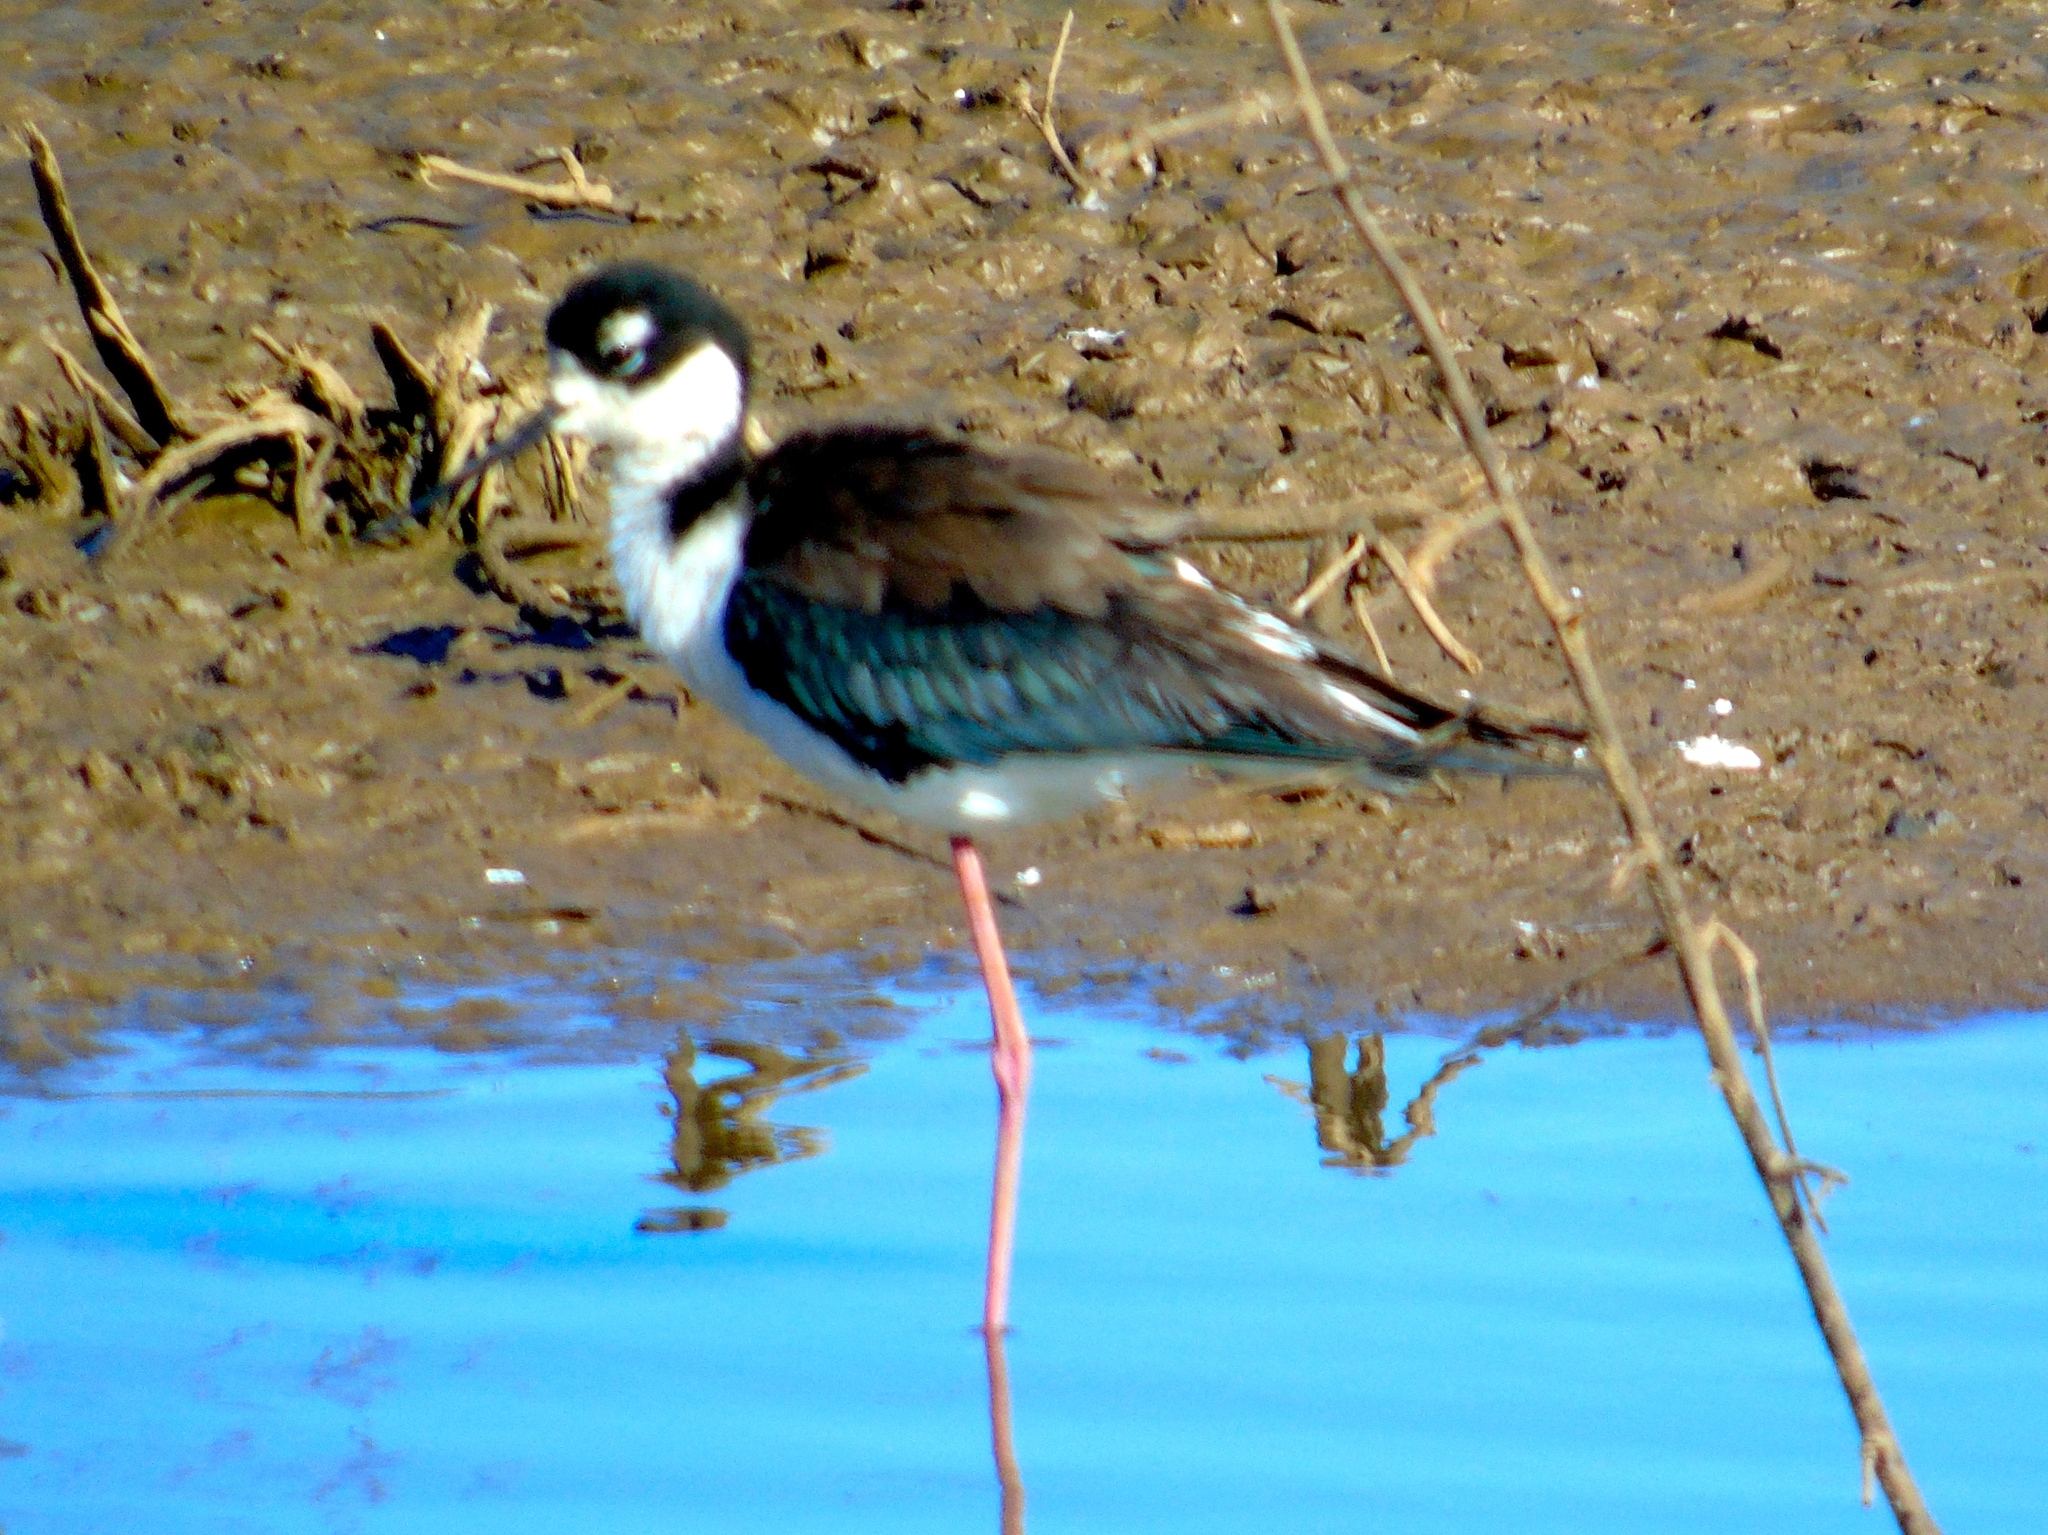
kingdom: Animalia
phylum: Chordata
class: Aves
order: Charadriiformes
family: Recurvirostridae
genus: Himantopus
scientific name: Himantopus mexicanus
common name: Black-necked stilt
